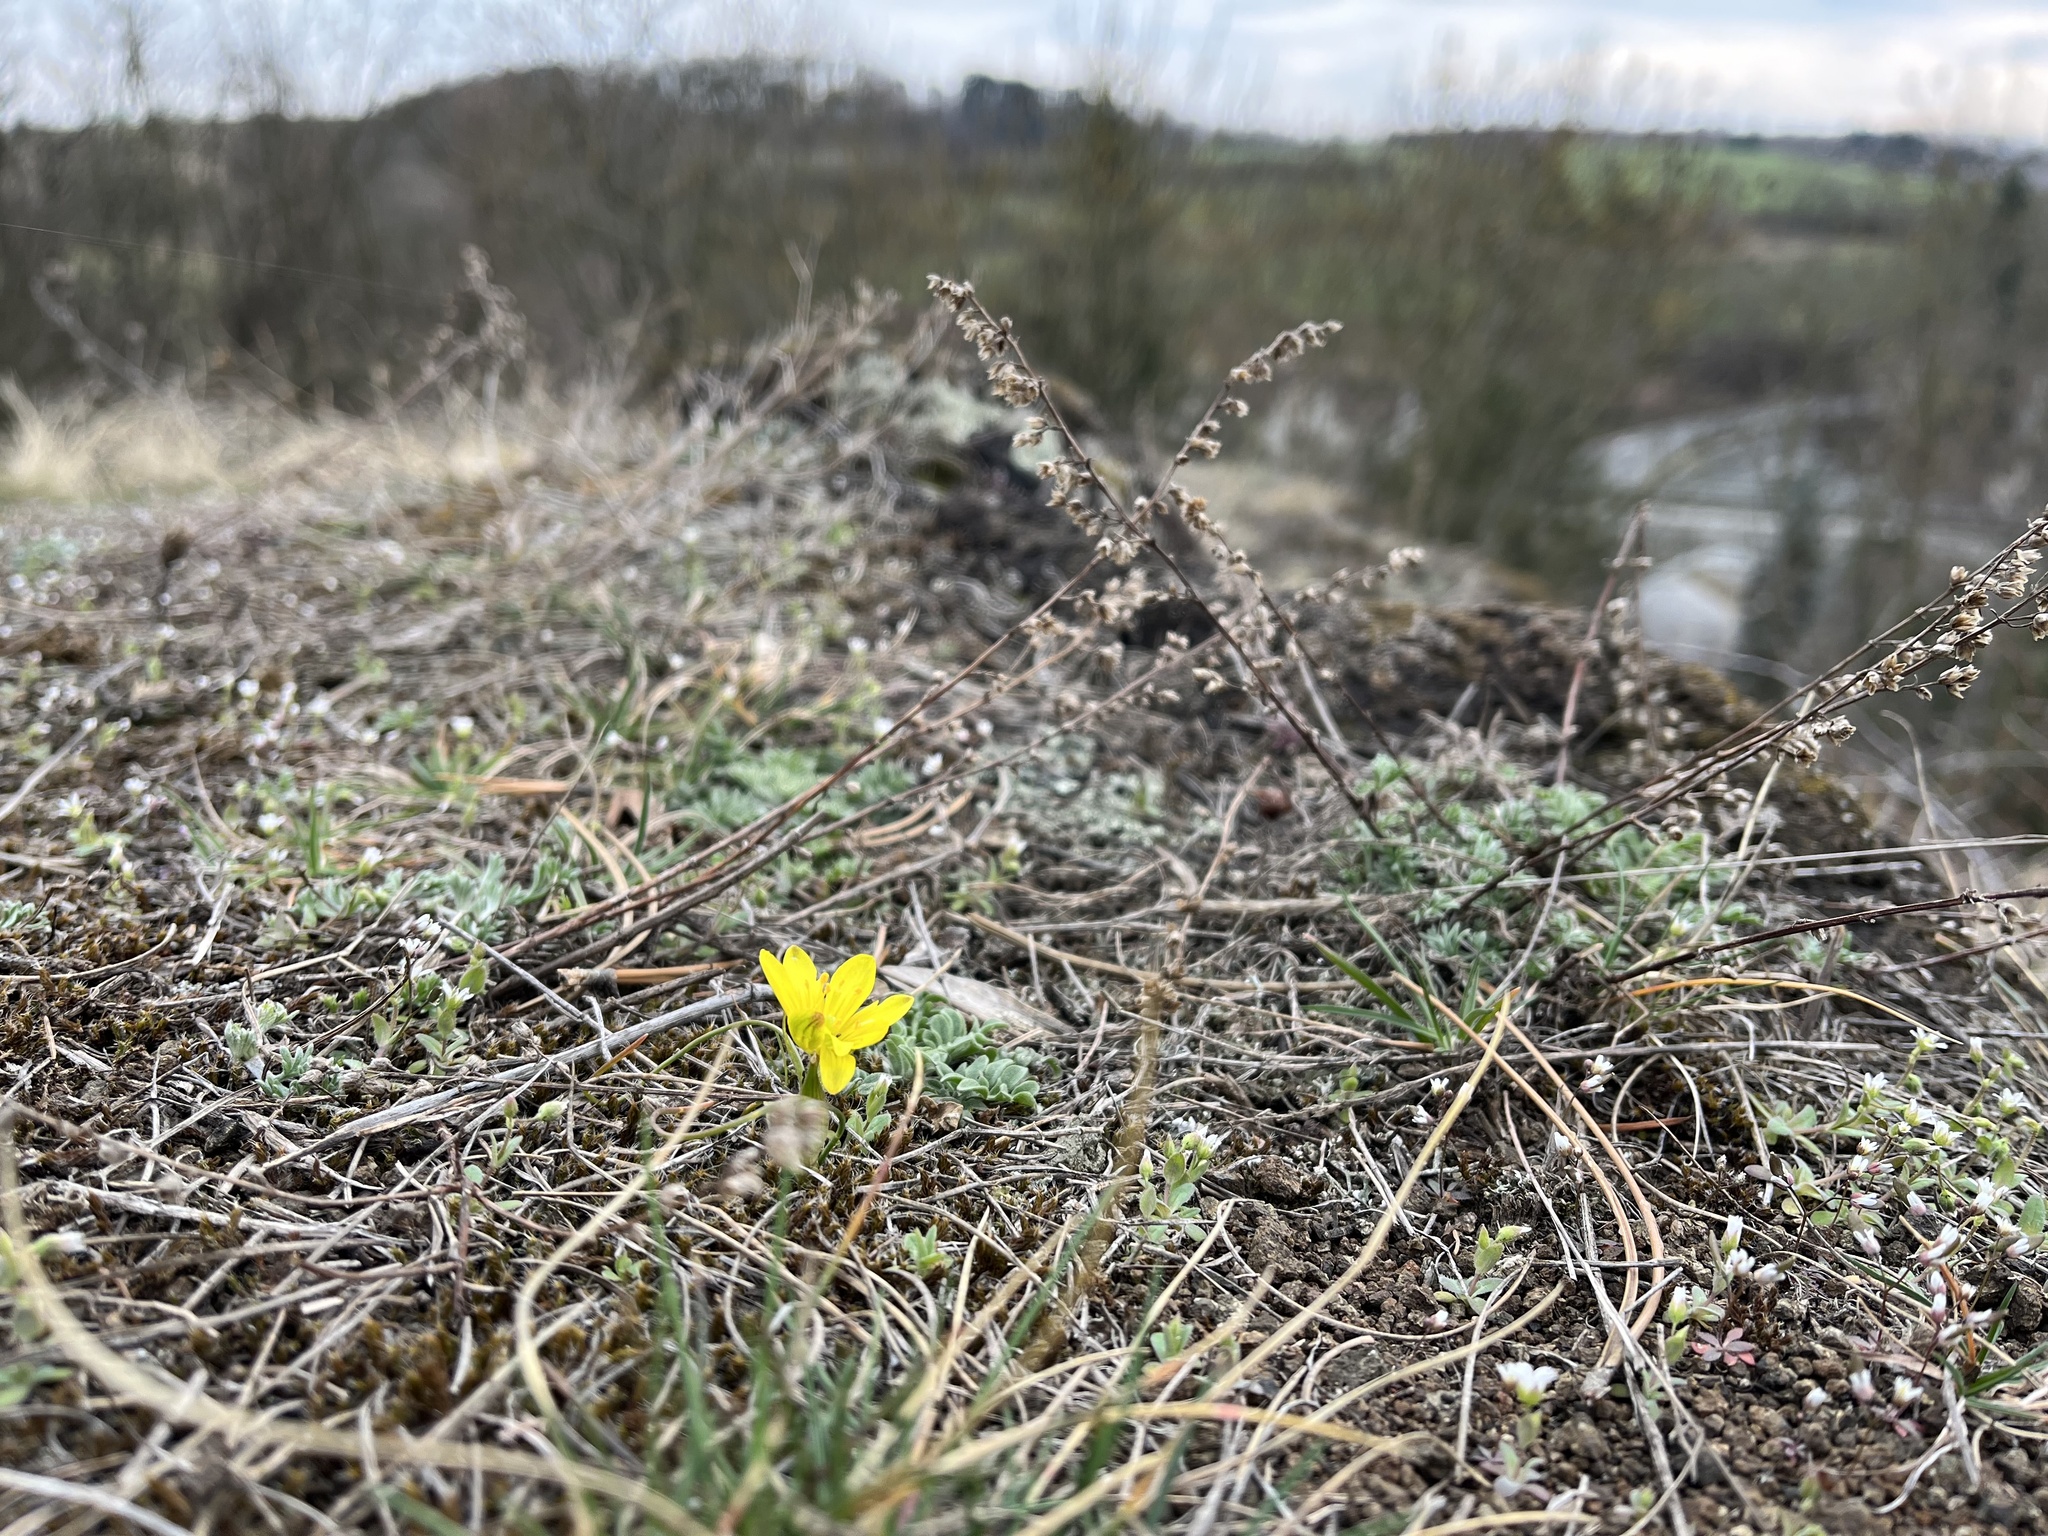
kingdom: Plantae
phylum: Tracheophyta
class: Liliopsida
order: Liliales
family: Liliaceae
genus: Gagea
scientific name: Gagea bohemica
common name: Early star-of-bethlehem
